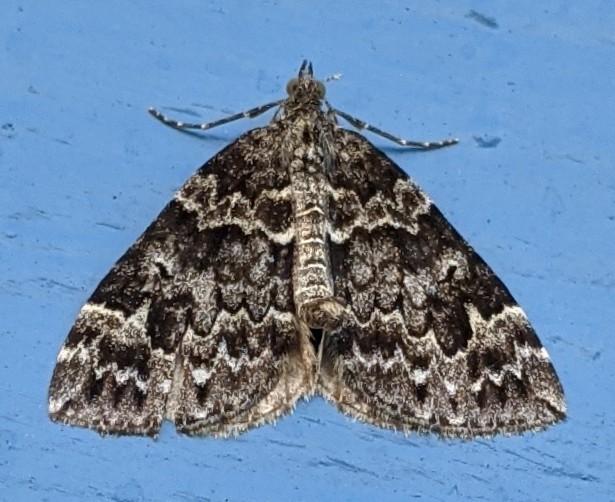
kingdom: Animalia
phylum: Arthropoda
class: Insecta
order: Lepidoptera
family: Geometridae
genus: Dysstroma
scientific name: Dysstroma citrata
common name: Dark marbled carpet
